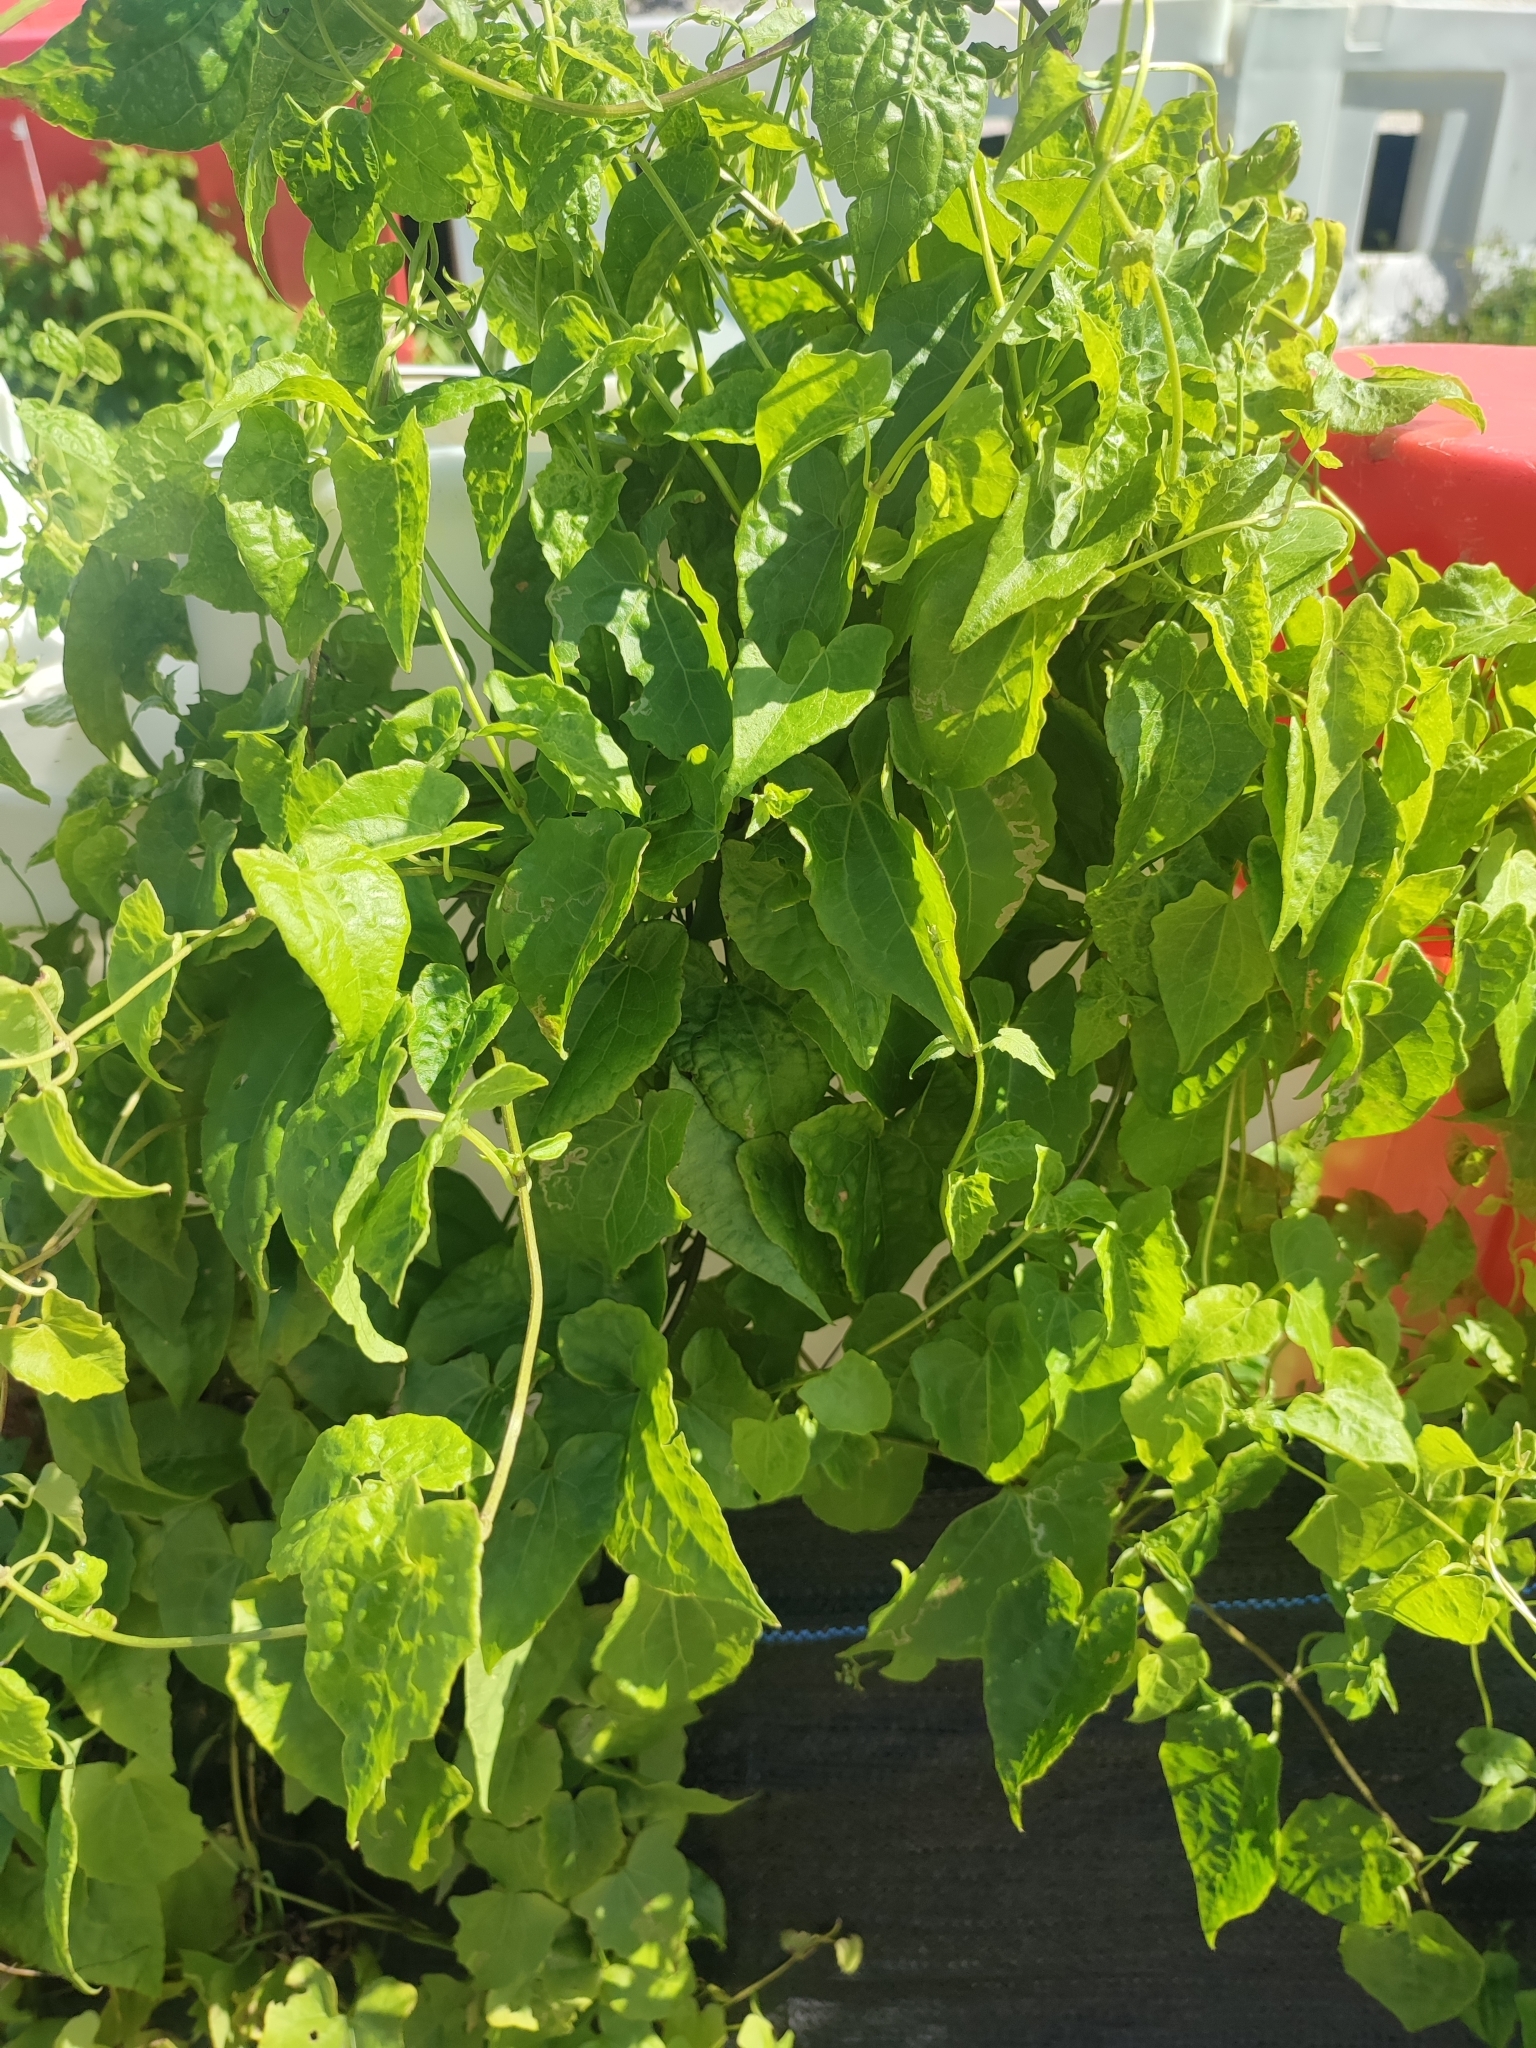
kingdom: Plantae
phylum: Tracheophyta
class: Magnoliopsida
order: Asterales
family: Asteraceae
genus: Mikania
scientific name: Mikania micrantha
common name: Mile-a-minute
